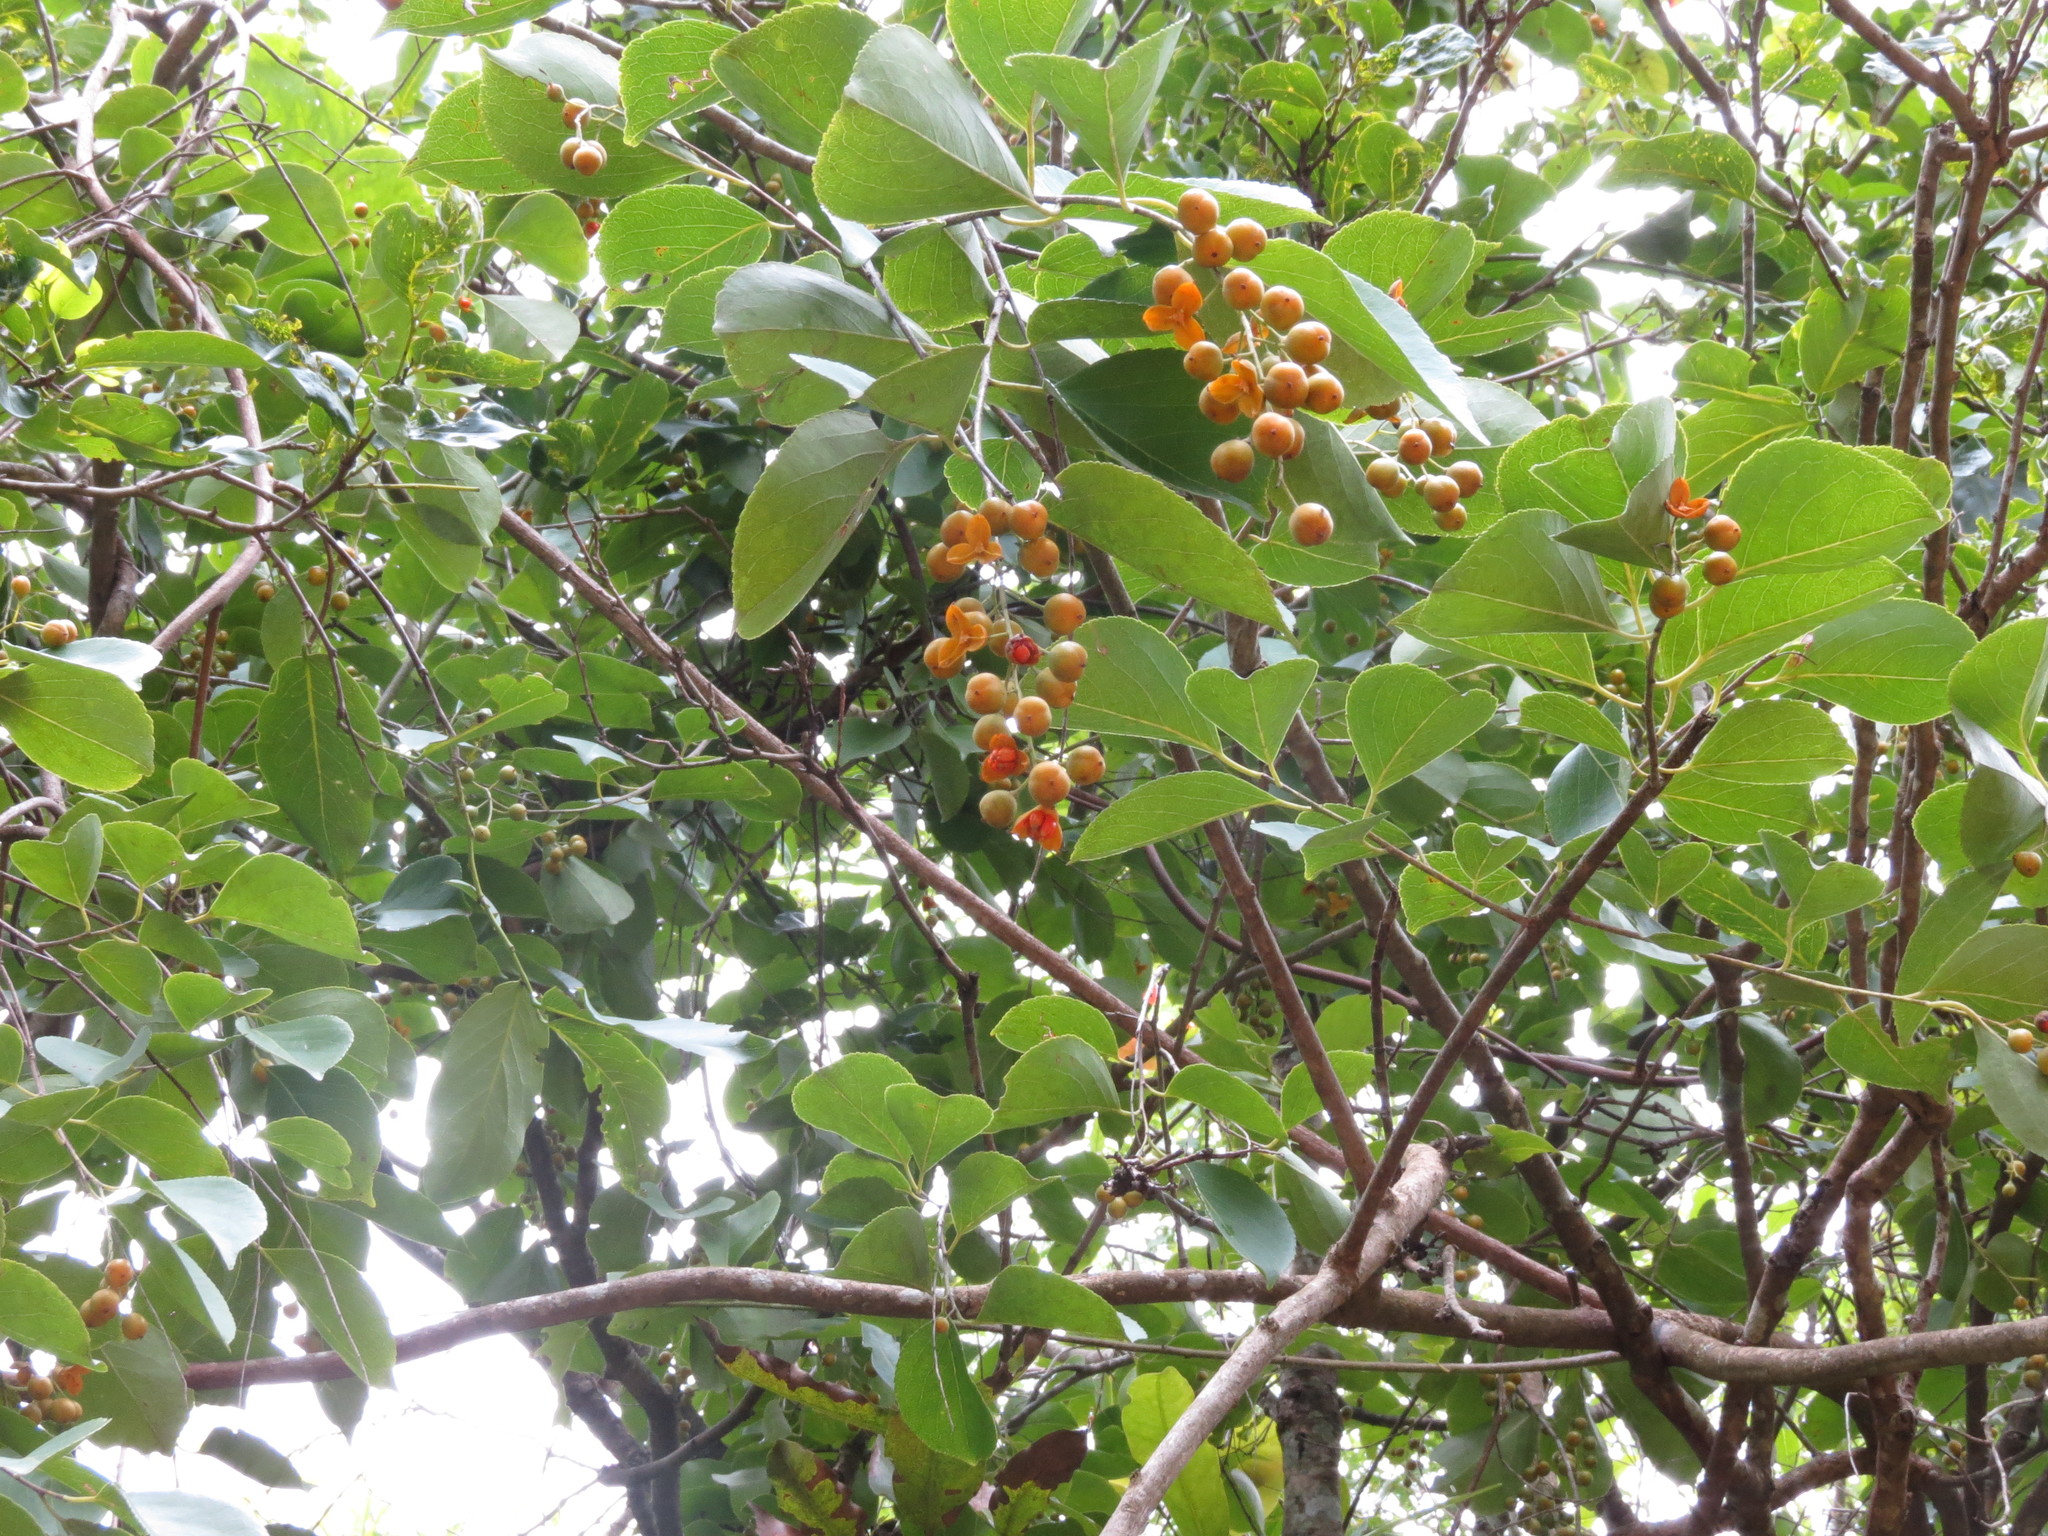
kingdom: Plantae
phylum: Tracheophyta
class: Magnoliopsida
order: Celastrales
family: Celastraceae
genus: Celastrus
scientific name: Celastrus paniculatus
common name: Oriental bittersweet; staff vine
